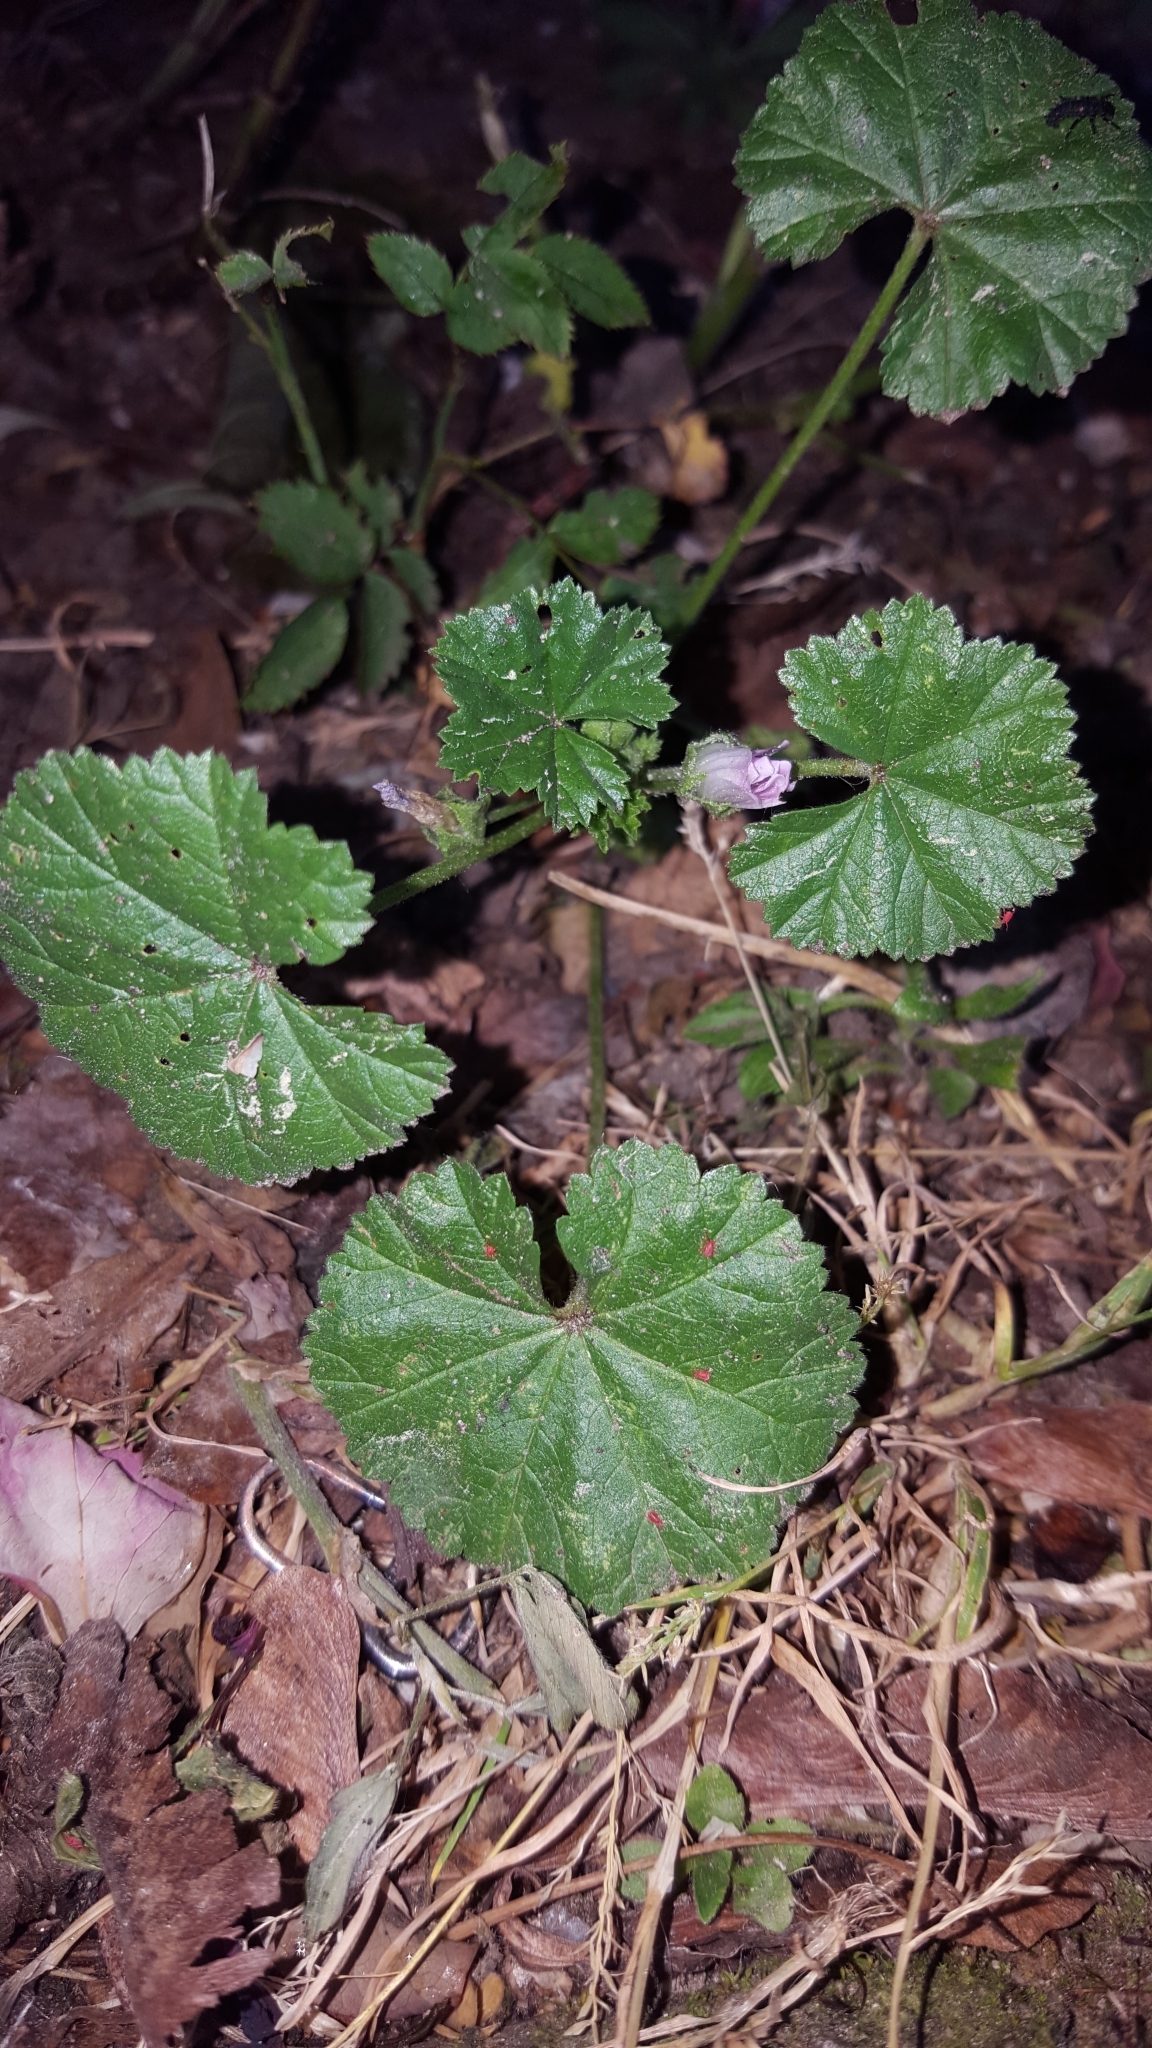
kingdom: Plantae
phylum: Tracheophyta
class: Magnoliopsida
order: Malvales
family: Malvaceae
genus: Malva
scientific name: Malva neglecta
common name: Common mallow
